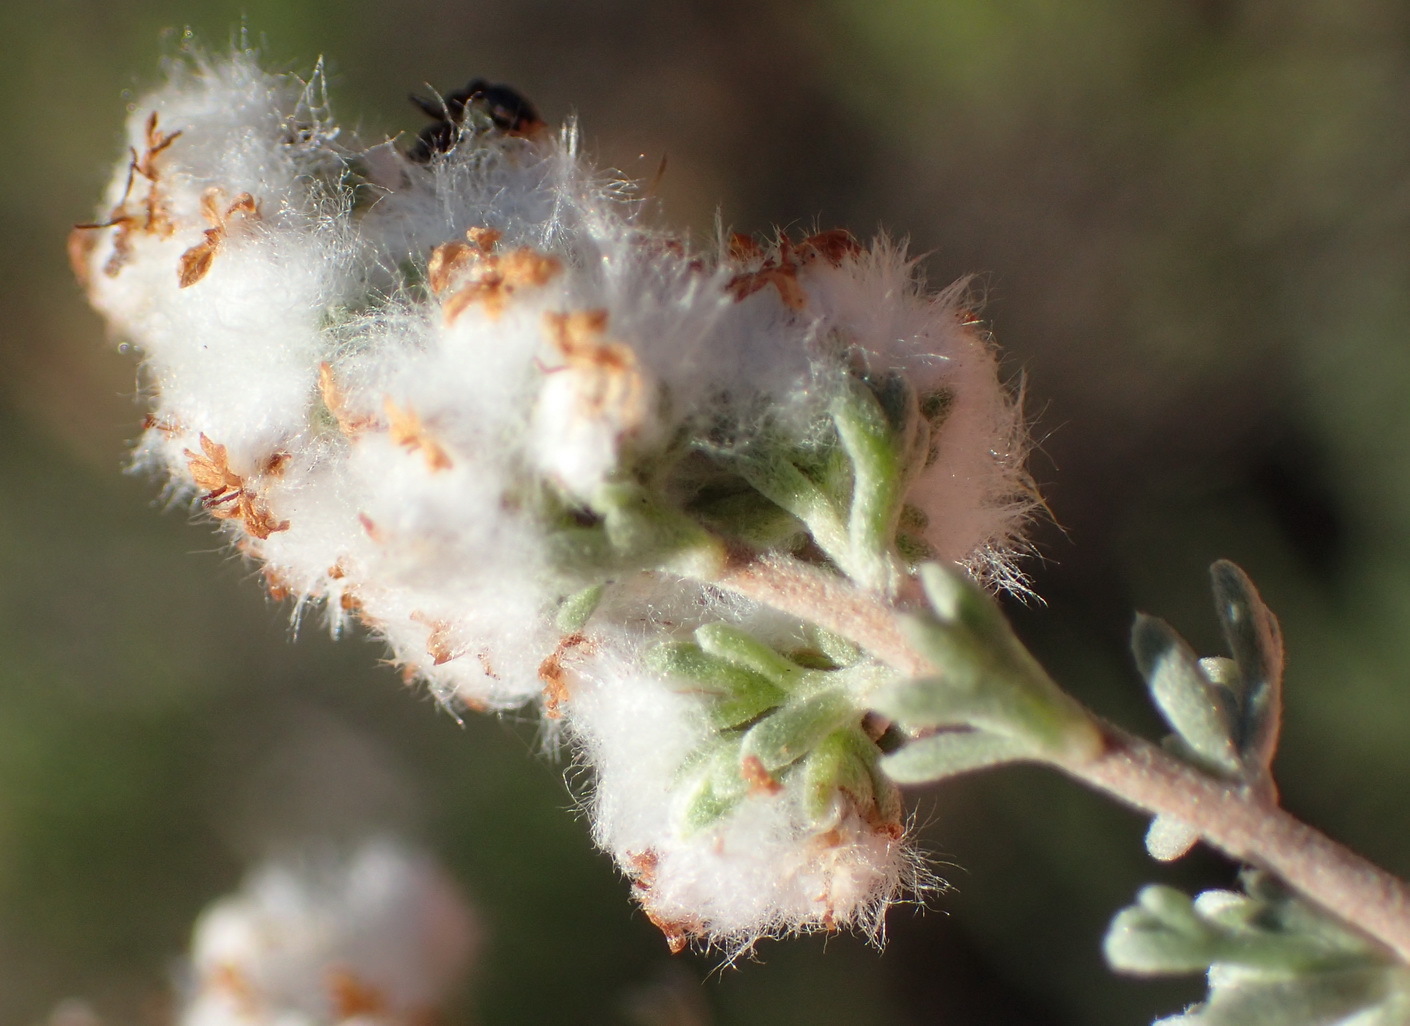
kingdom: Plantae
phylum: Tracheophyta
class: Magnoliopsida
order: Asterales
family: Asteraceae
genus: Eriocephalus
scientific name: Eriocephalus capitellatus
